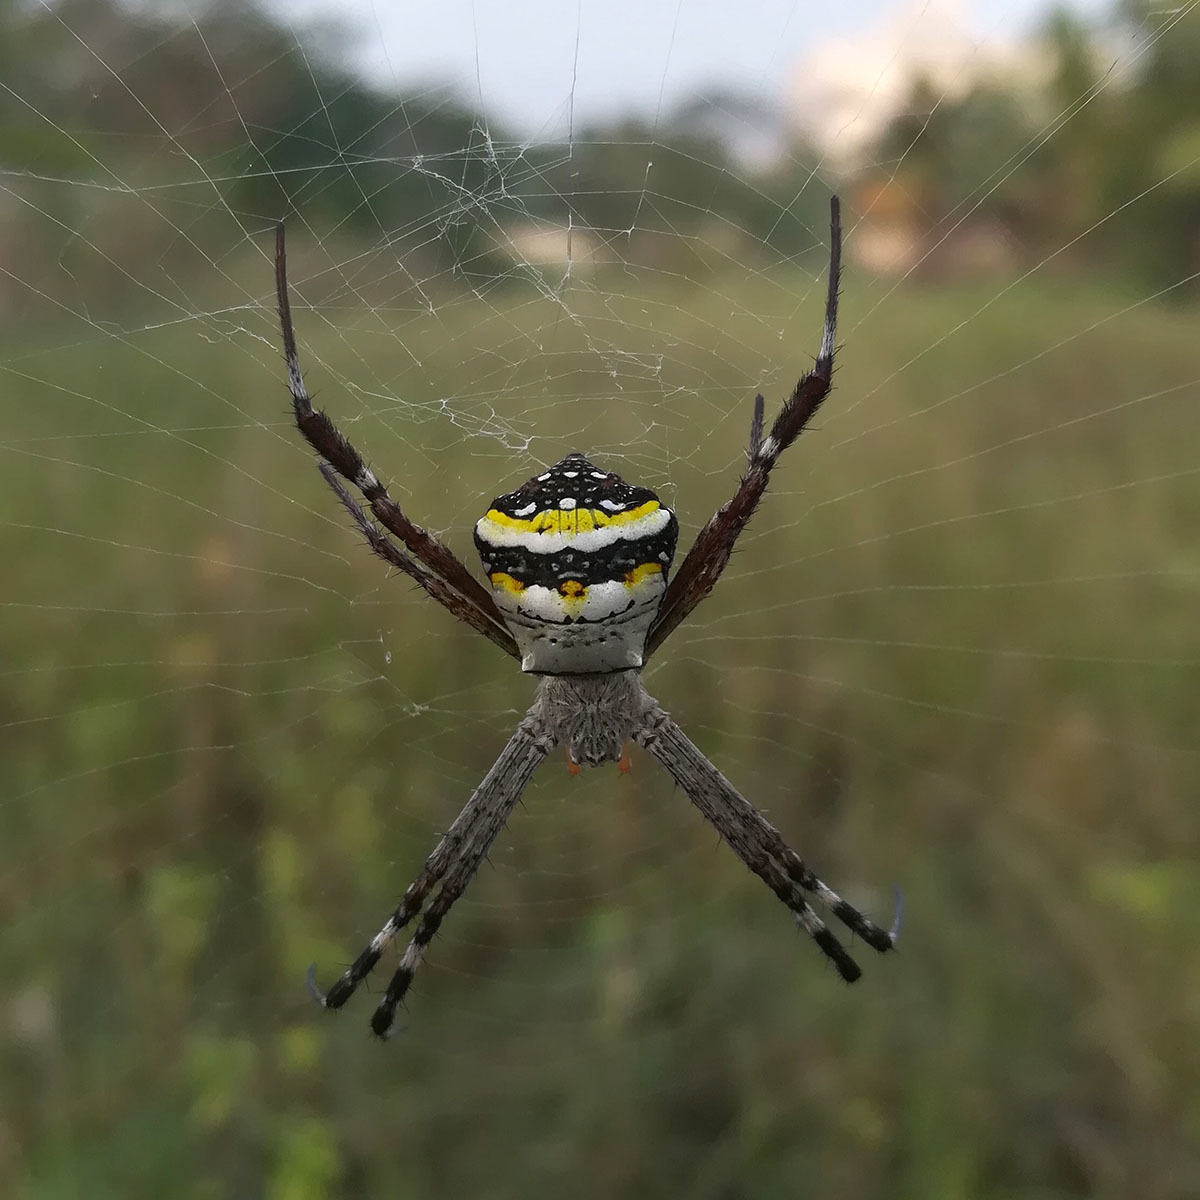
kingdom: Animalia
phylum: Arthropoda
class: Arachnida
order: Araneae
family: Araneidae
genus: Argiope
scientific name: Argiope anasuja
